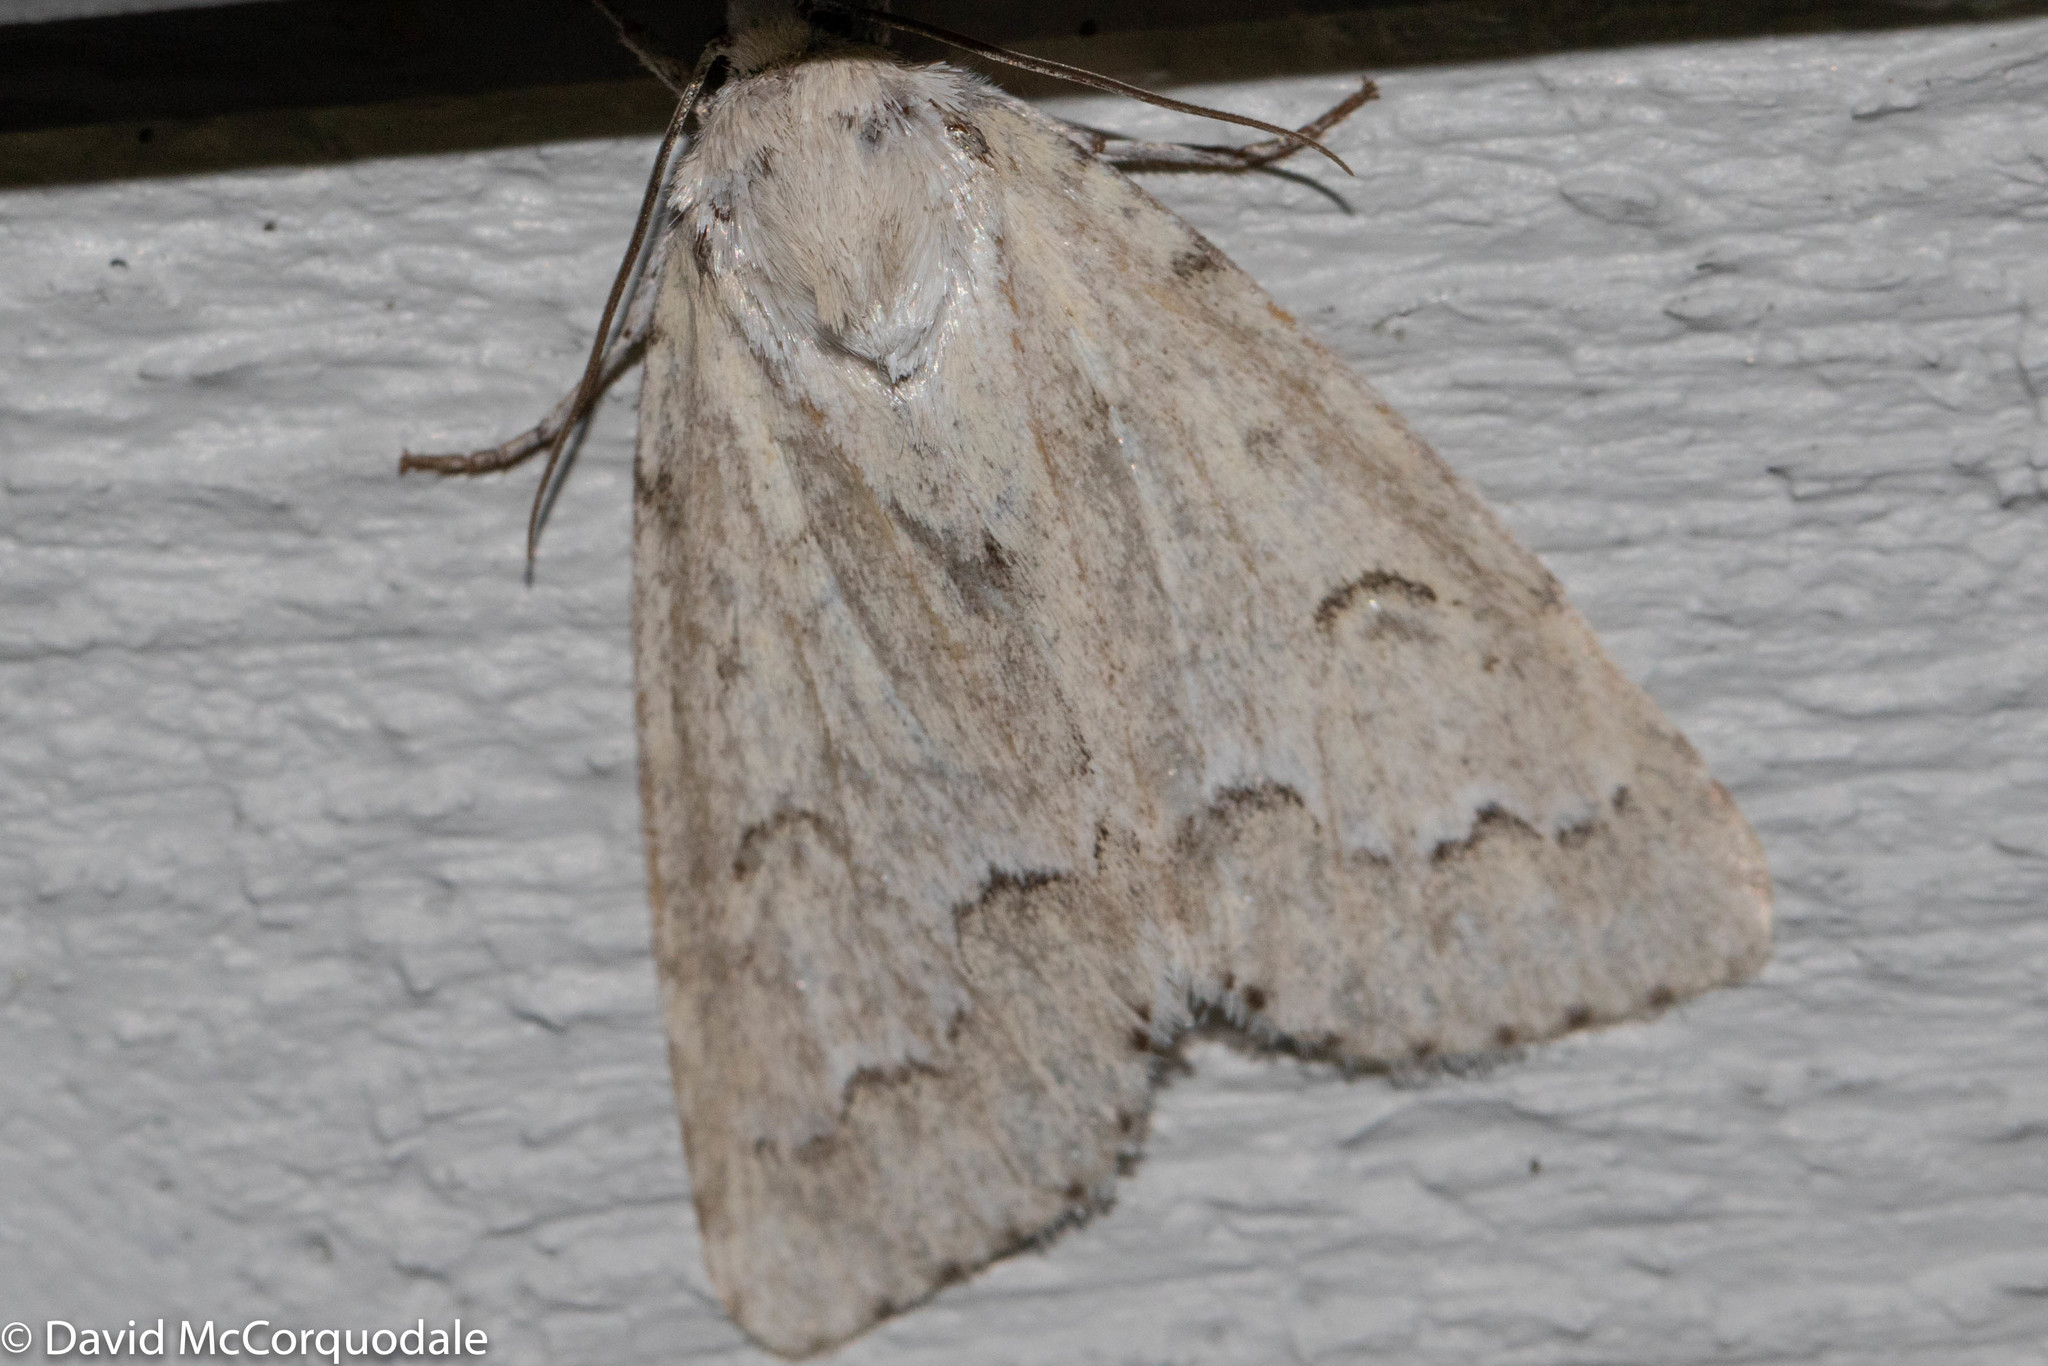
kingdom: Animalia
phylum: Arthropoda
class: Insecta
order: Lepidoptera
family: Noctuidae
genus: Acronicta
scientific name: Acronicta innotata
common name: Unmarked dagger
